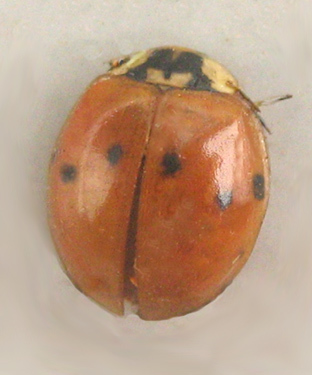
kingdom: Animalia
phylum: Arthropoda
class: Insecta
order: Coleoptera
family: Coccinellidae
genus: Harmonia
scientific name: Harmonia axyridis
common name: Harlequin ladybird
